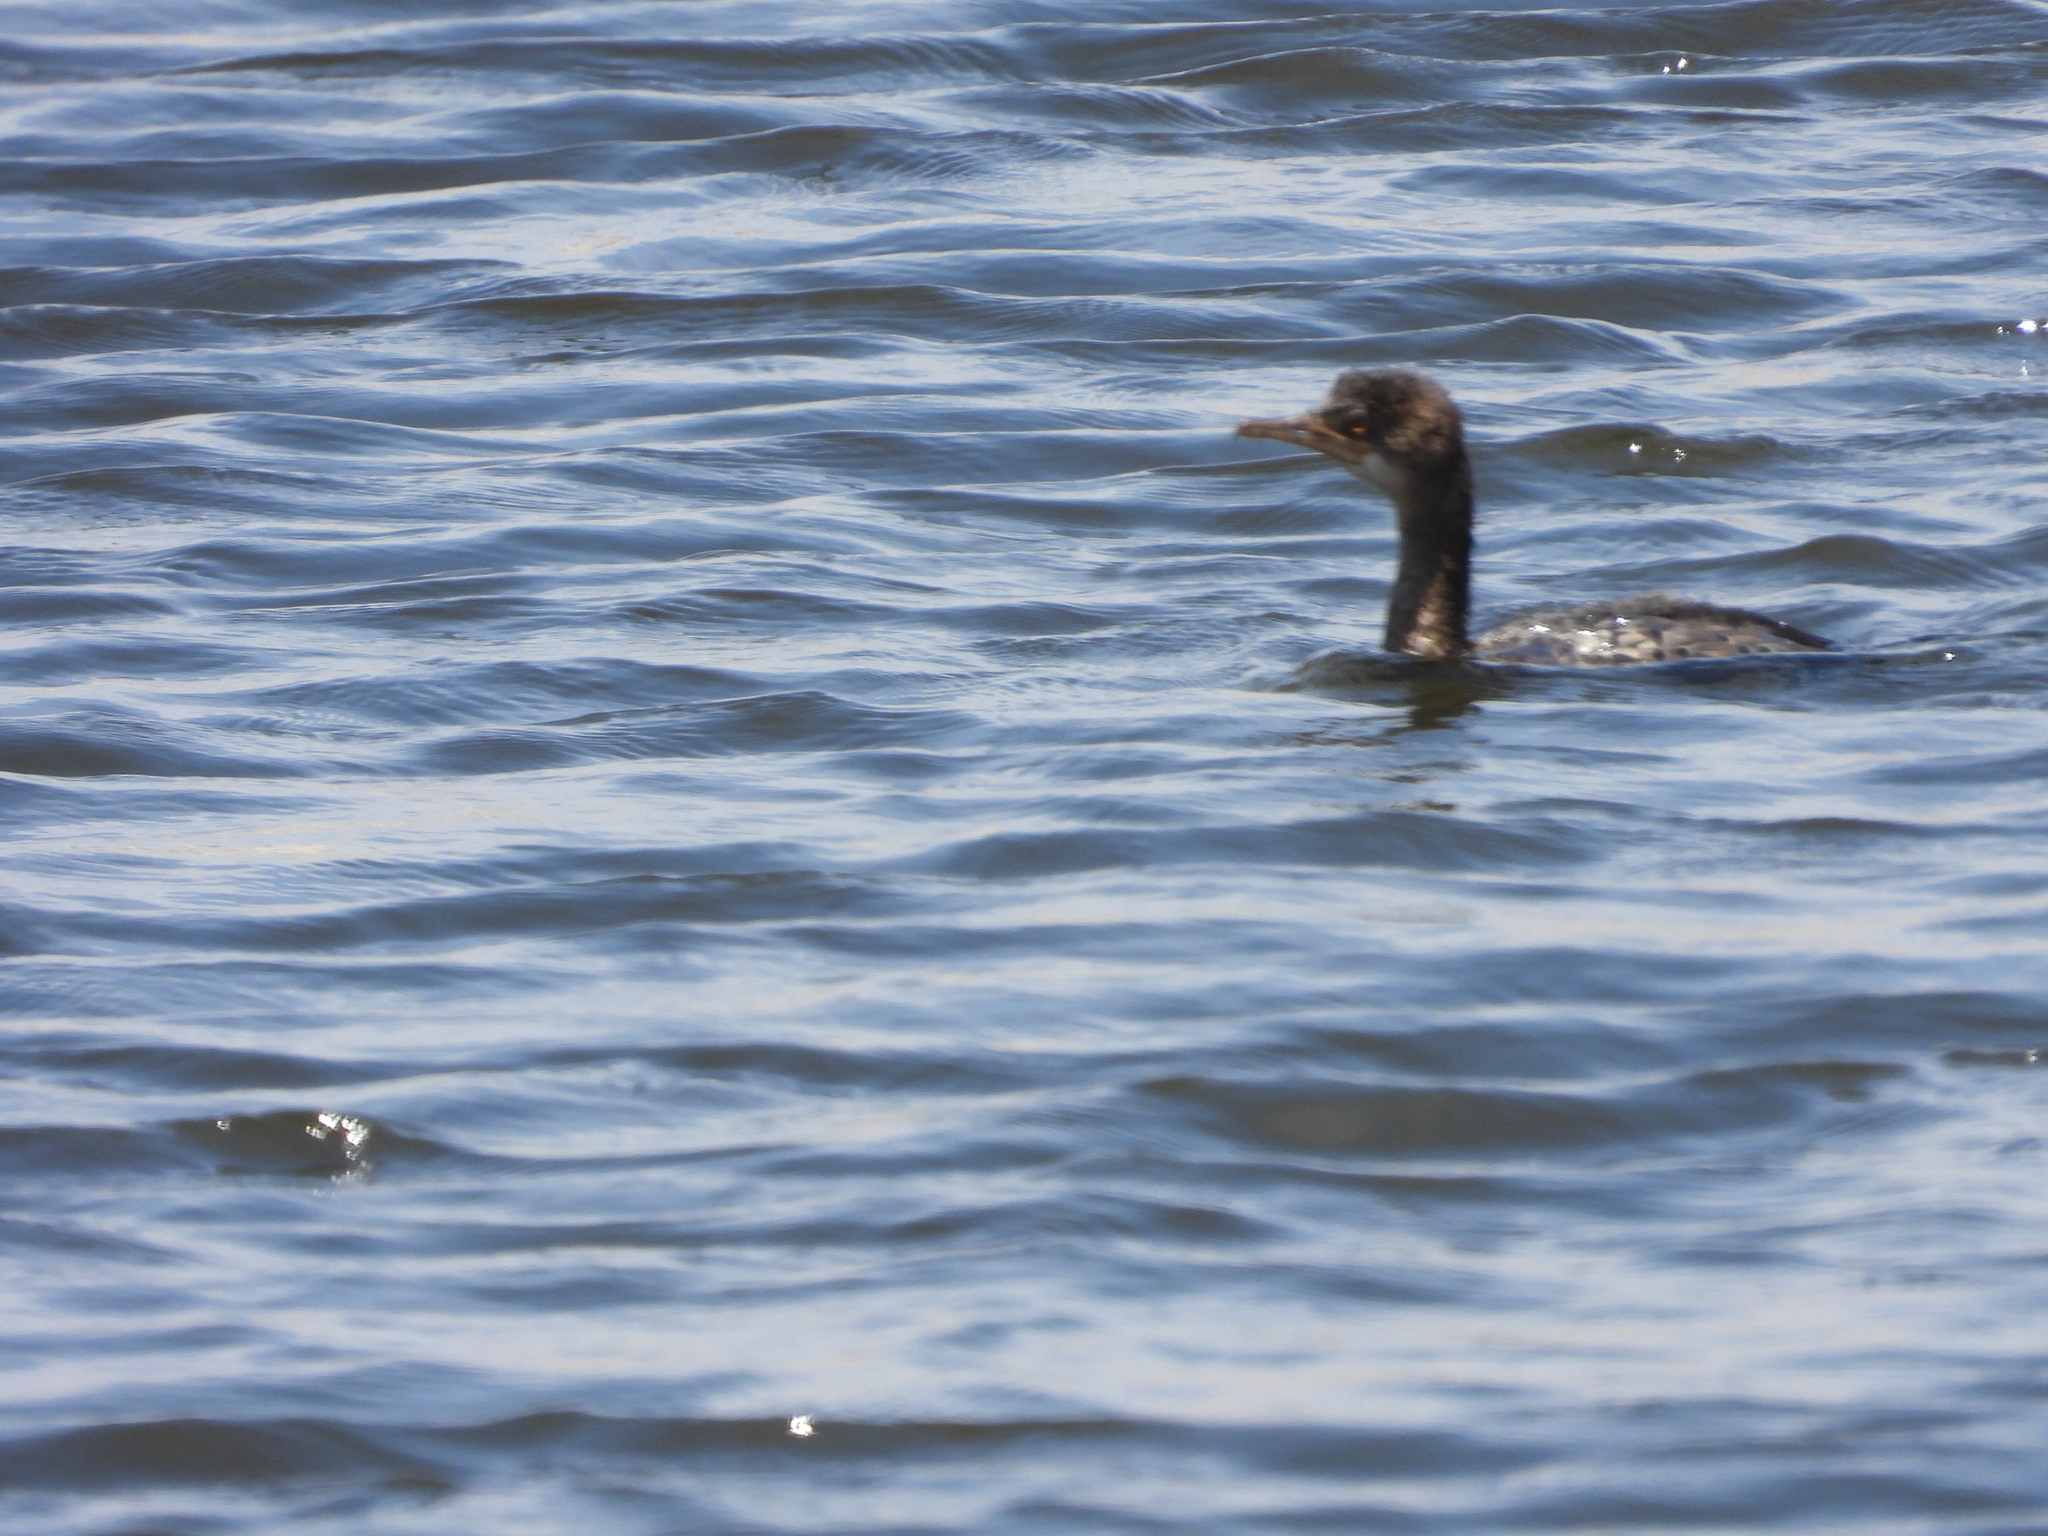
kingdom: Animalia
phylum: Chordata
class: Aves
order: Suliformes
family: Phalacrocoracidae
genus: Microcarbo
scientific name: Microcarbo africanus
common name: Long-tailed cormorant
